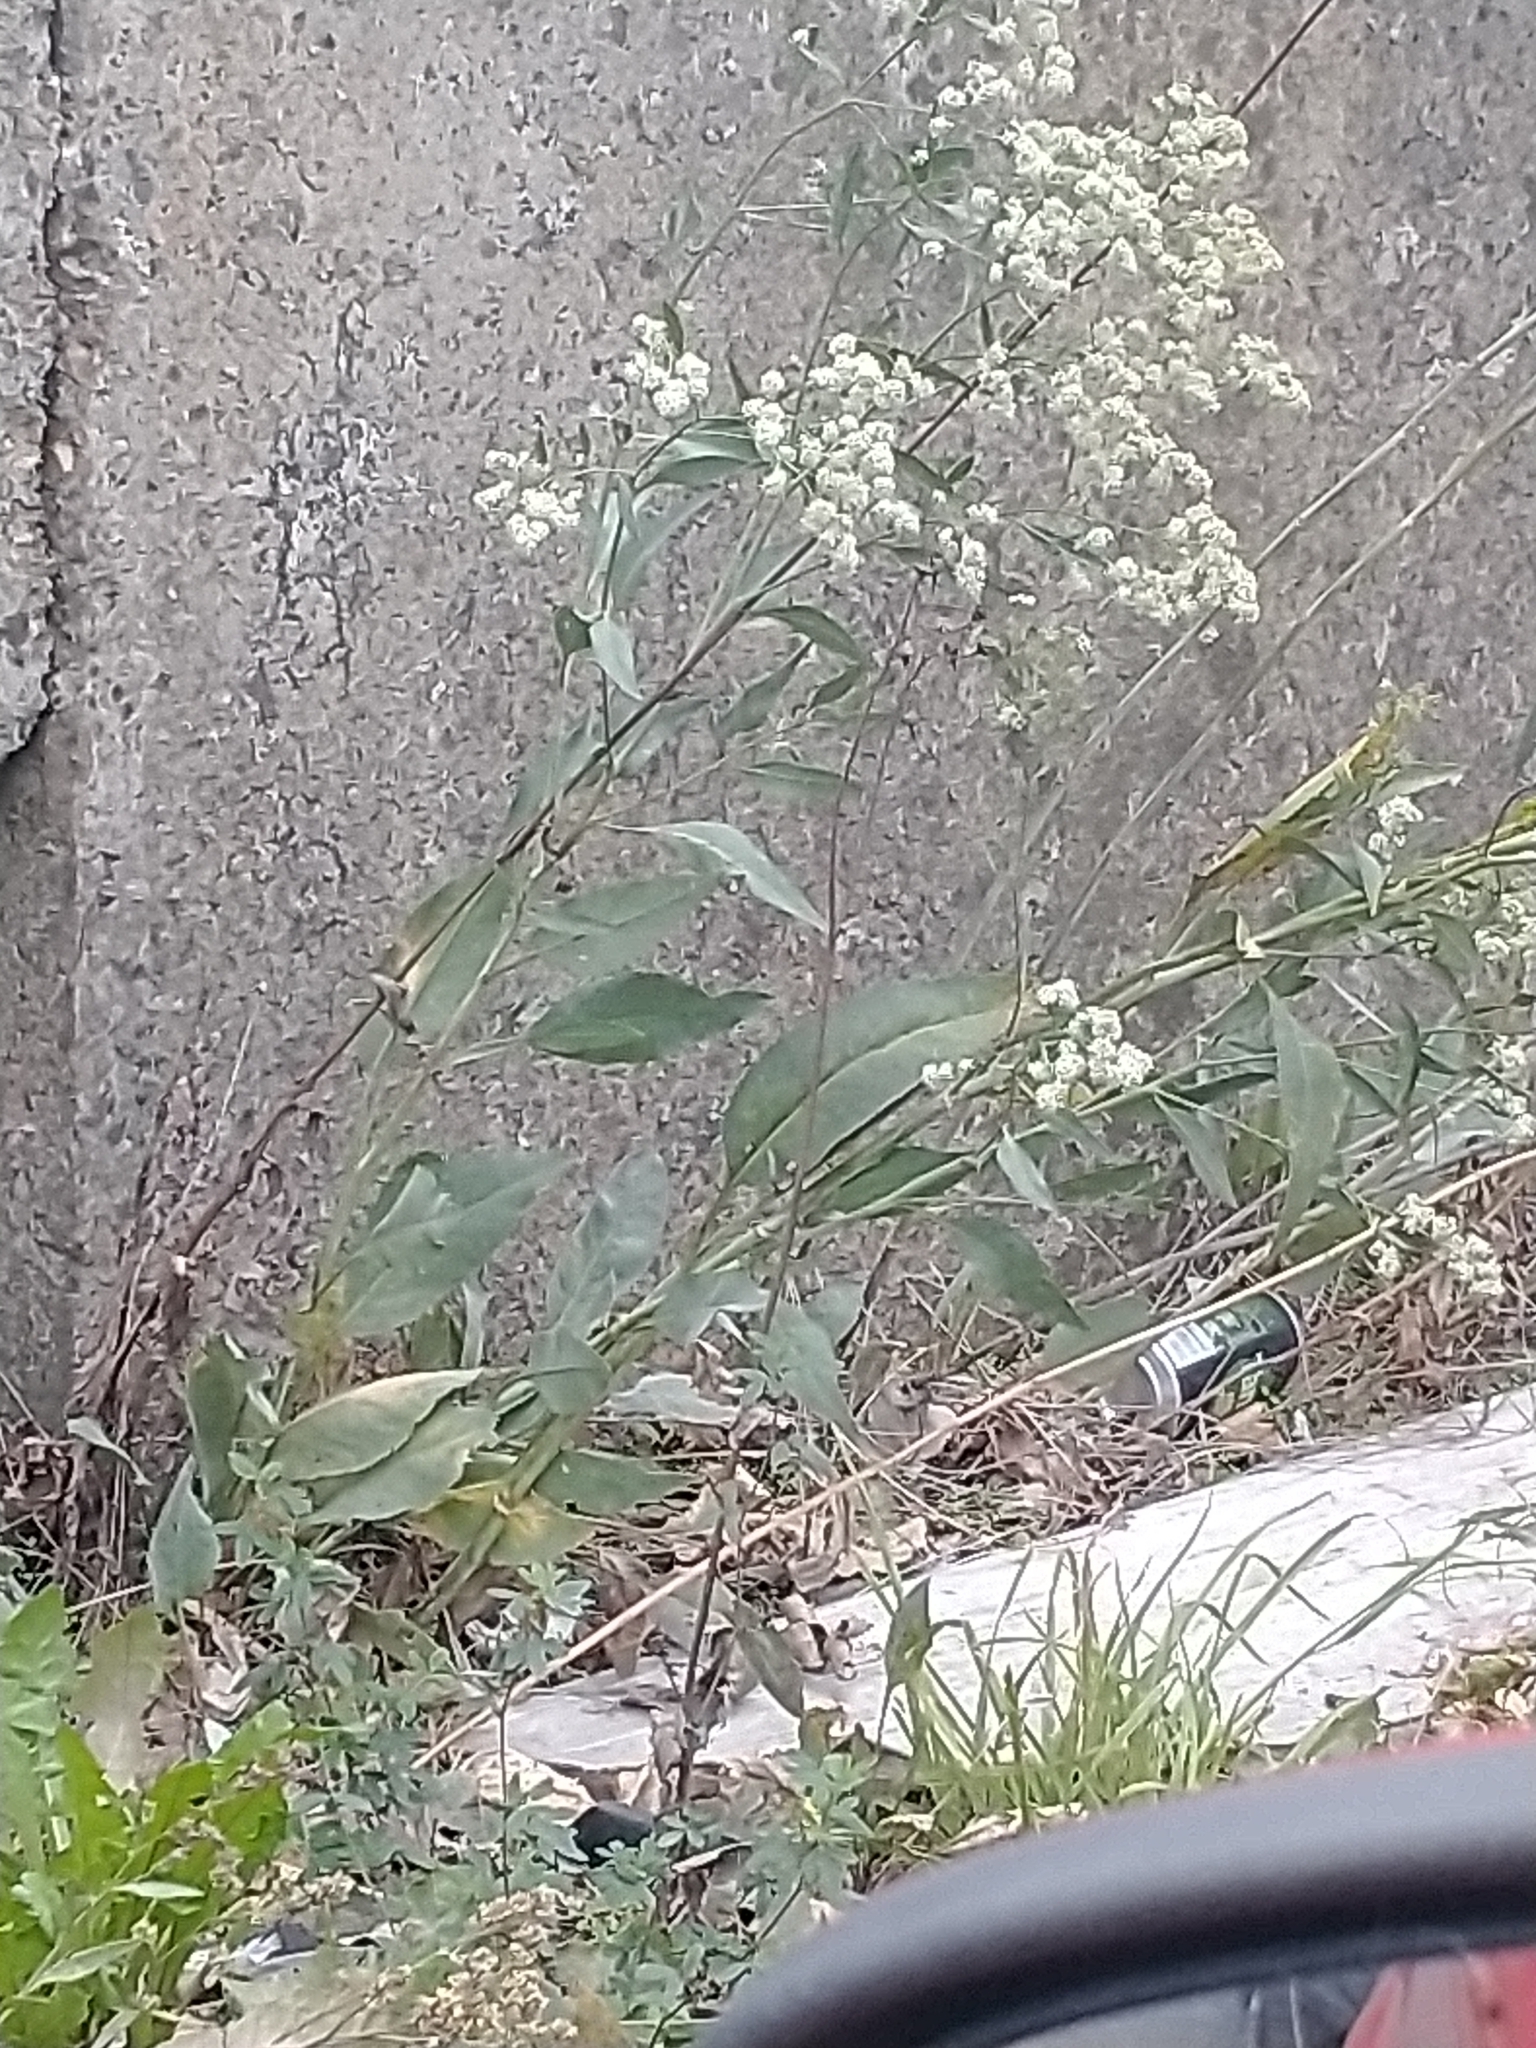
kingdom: Plantae
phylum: Tracheophyta
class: Magnoliopsida
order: Brassicales
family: Brassicaceae
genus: Lepidium
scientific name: Lepidium latifolium
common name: Dittander
